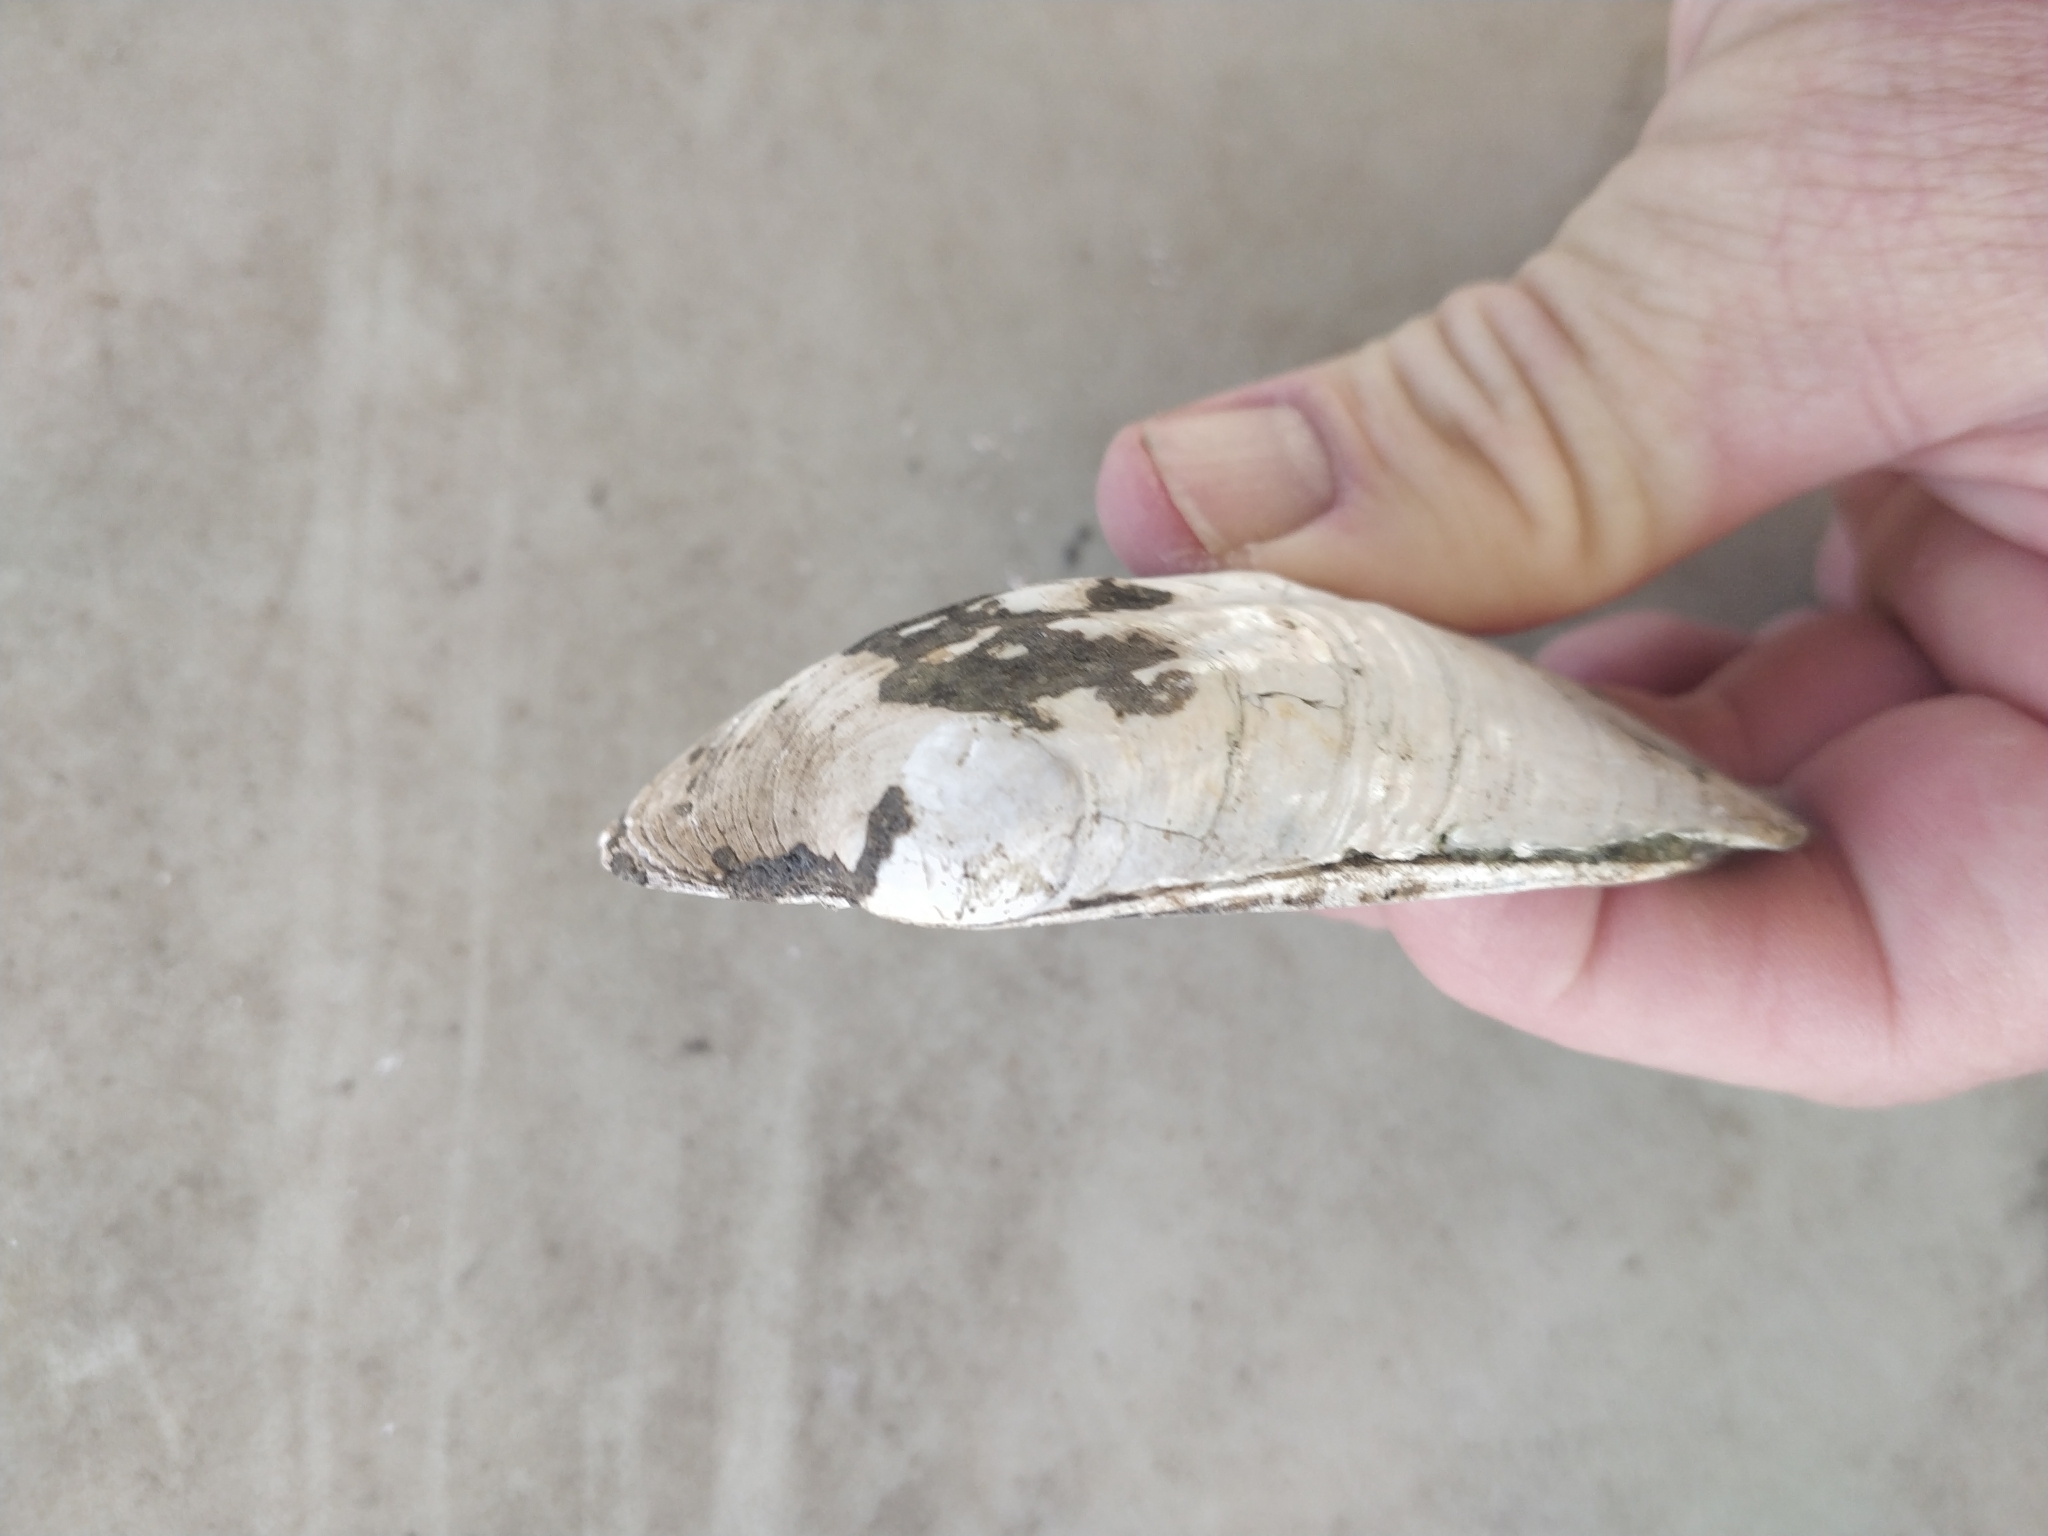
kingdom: Animalia
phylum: Mollusca
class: Bivalvia
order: Unionida
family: Unionidae
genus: Amblema
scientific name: Amblema plicata
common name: Threeridge
